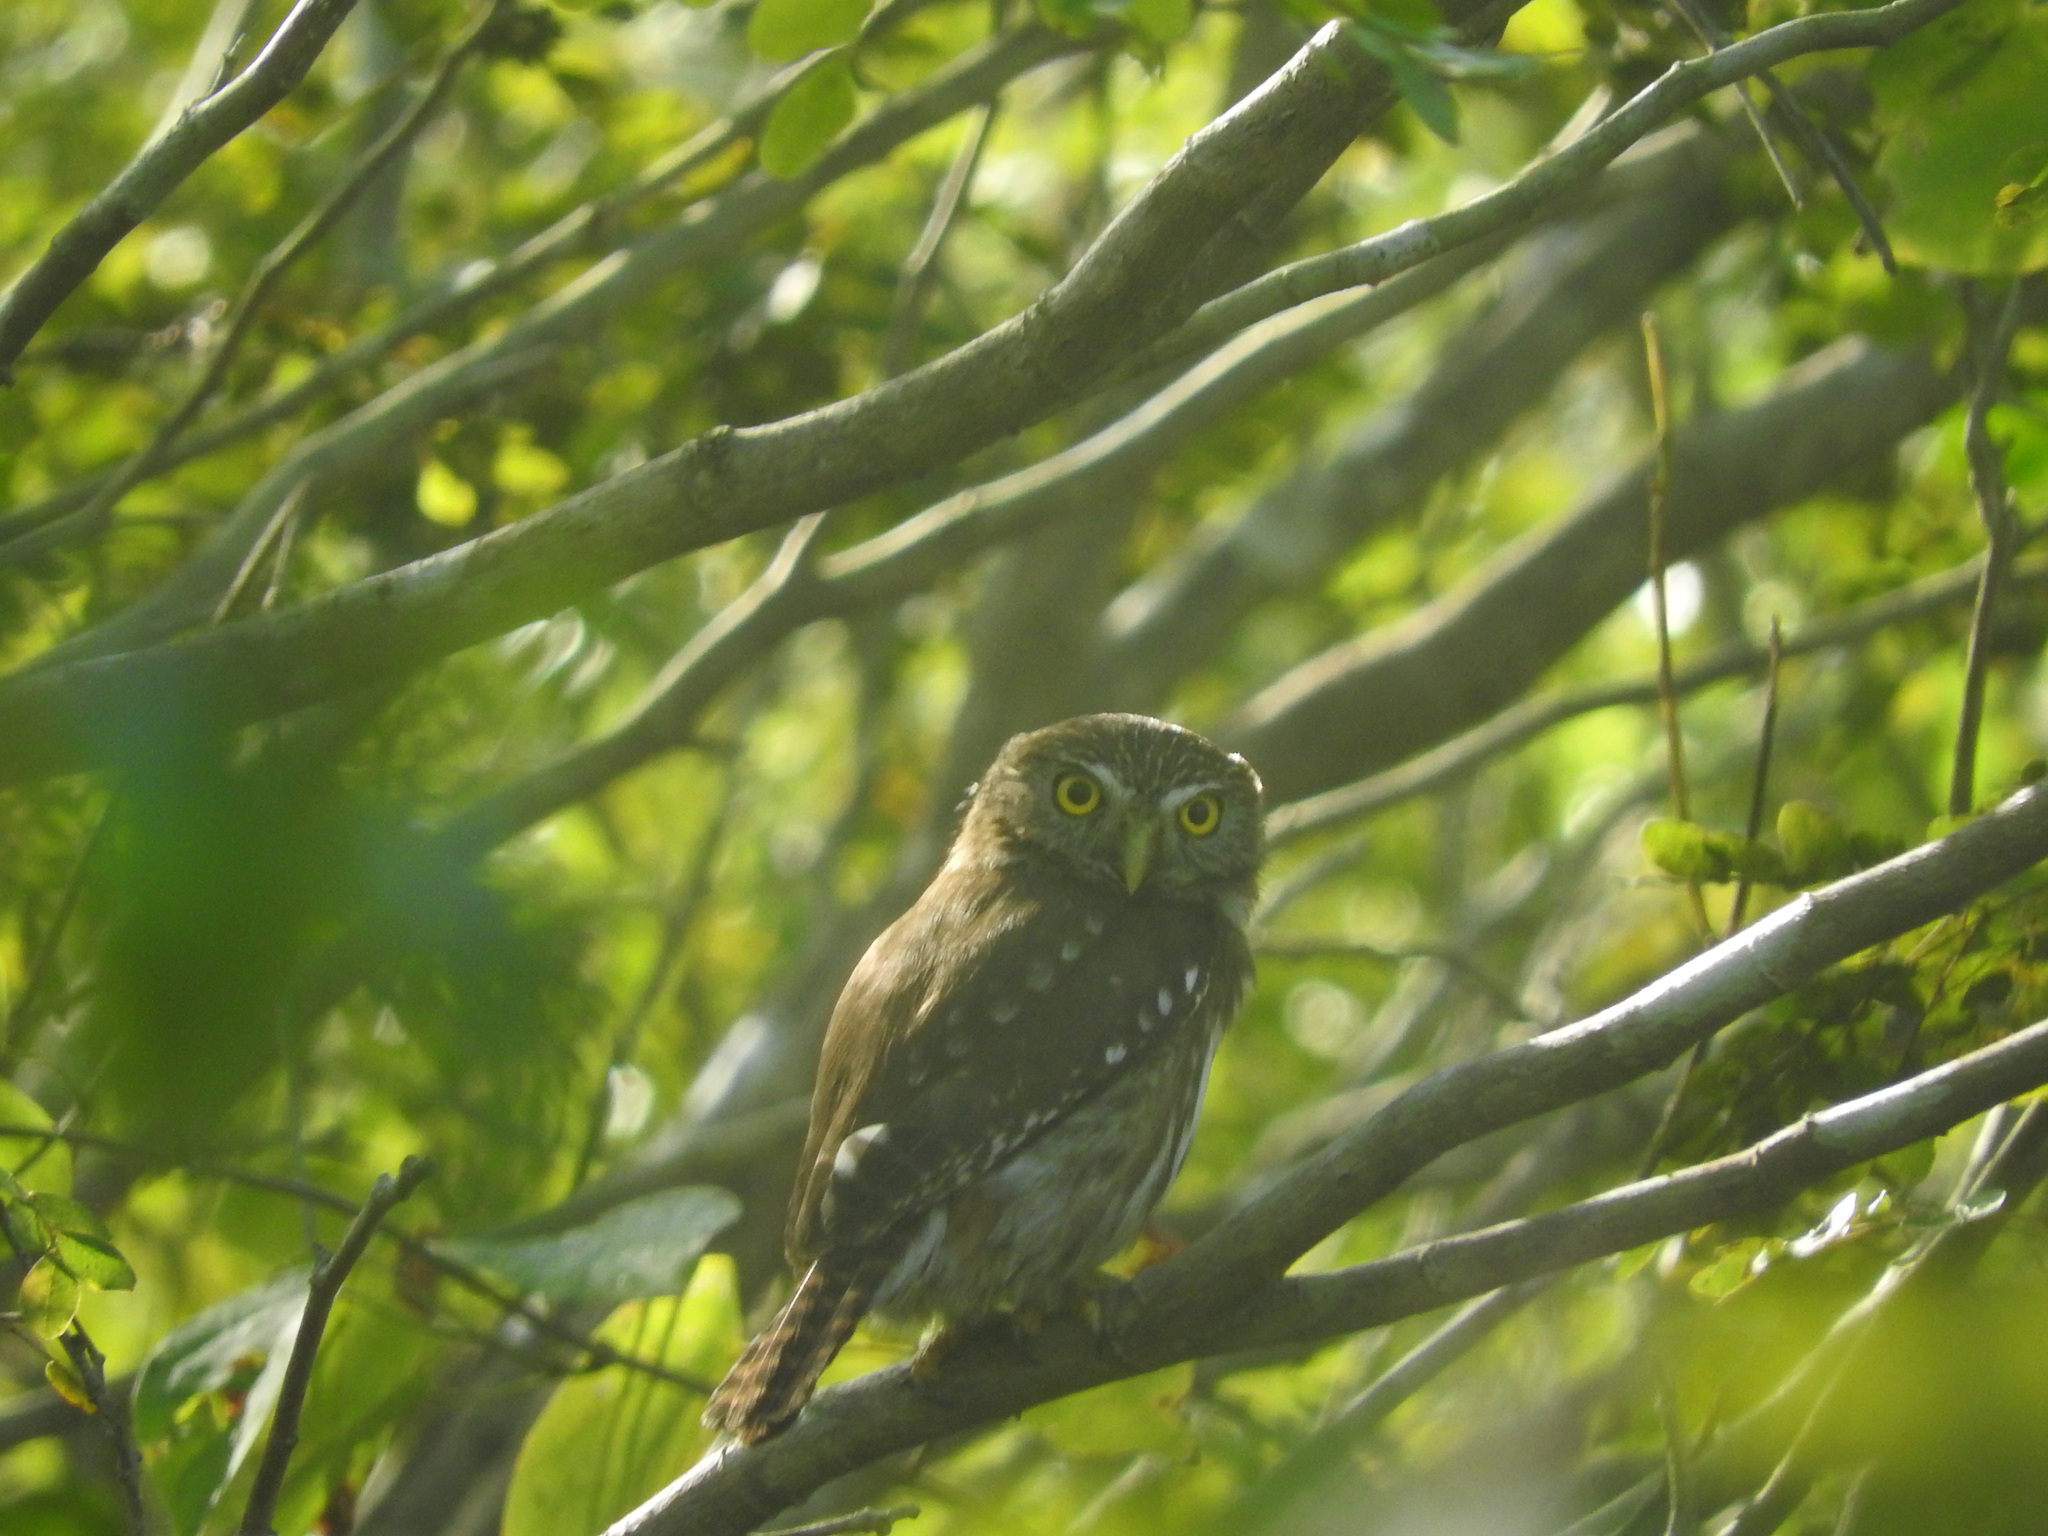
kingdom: Animalia
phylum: Chordata
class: Aves
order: Strigiformes
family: Strigidae
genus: Glaucidium
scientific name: Glaucidium brasilianum
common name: Ferruginous pygmy-owl
